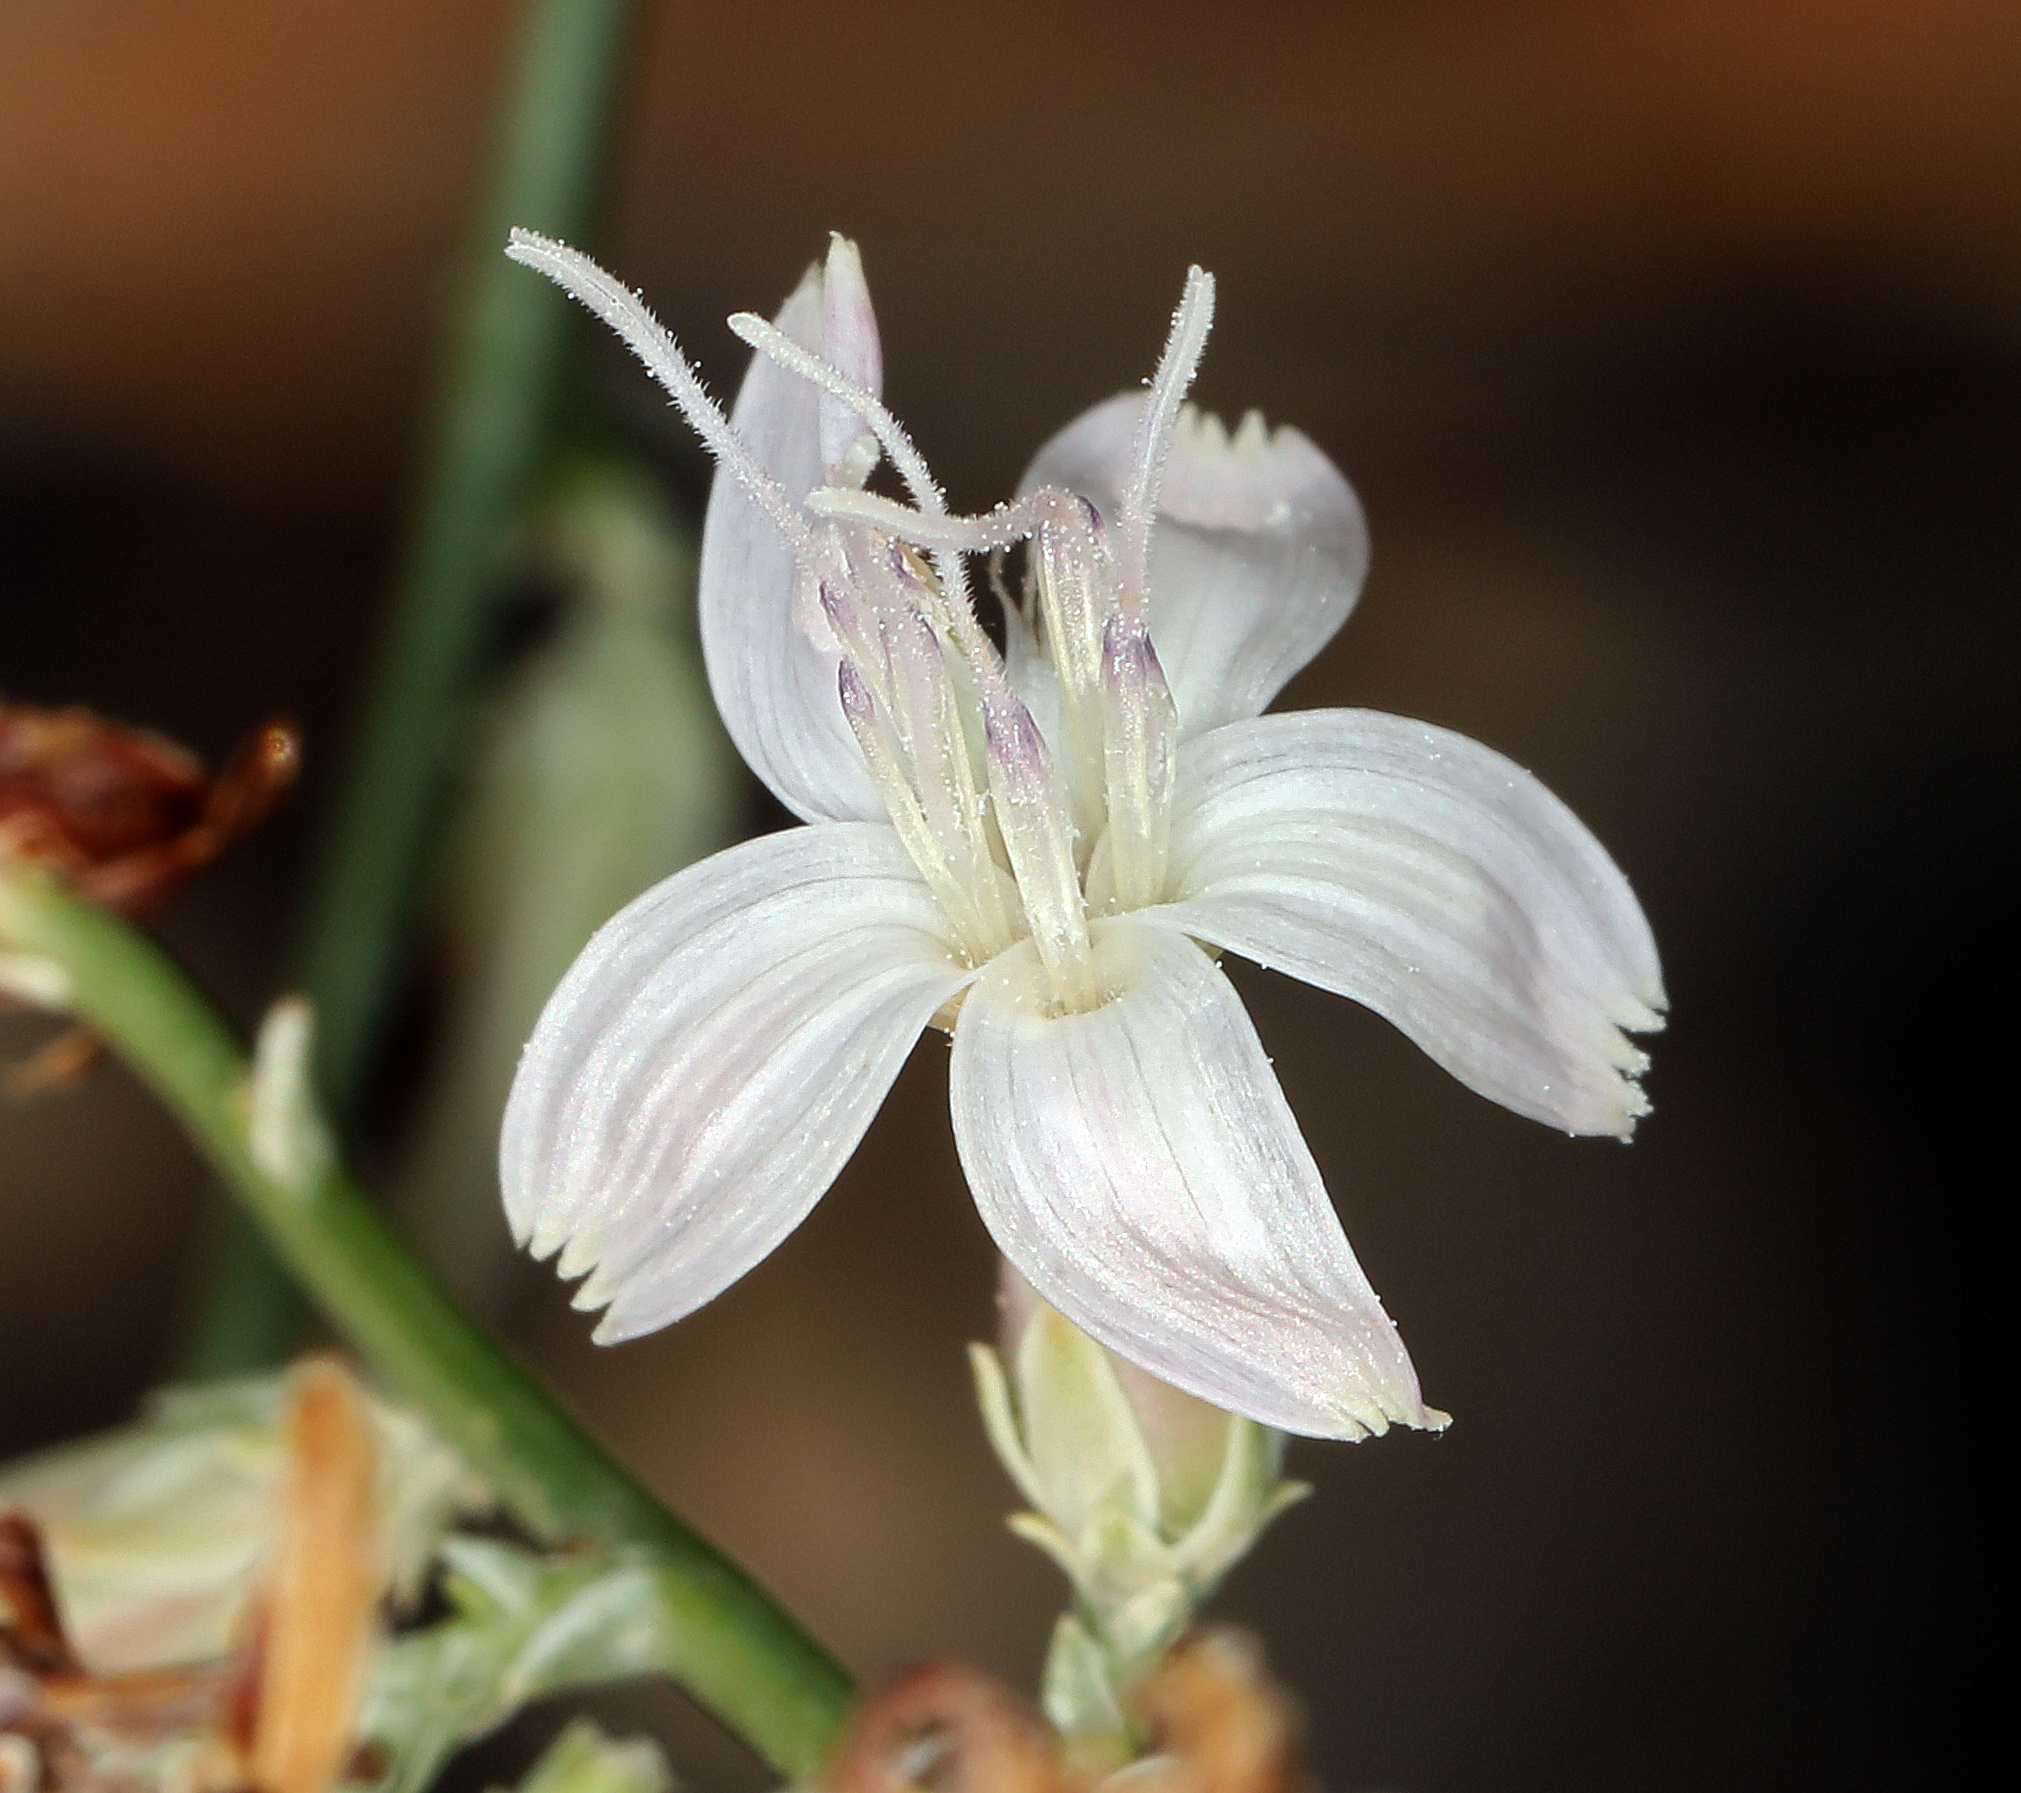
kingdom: Plantae
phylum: Tracheophyta
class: Magnoliopsida
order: Asterales
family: Asteraceae
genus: Stephanomeria
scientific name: Stephanomeria pauciflora
